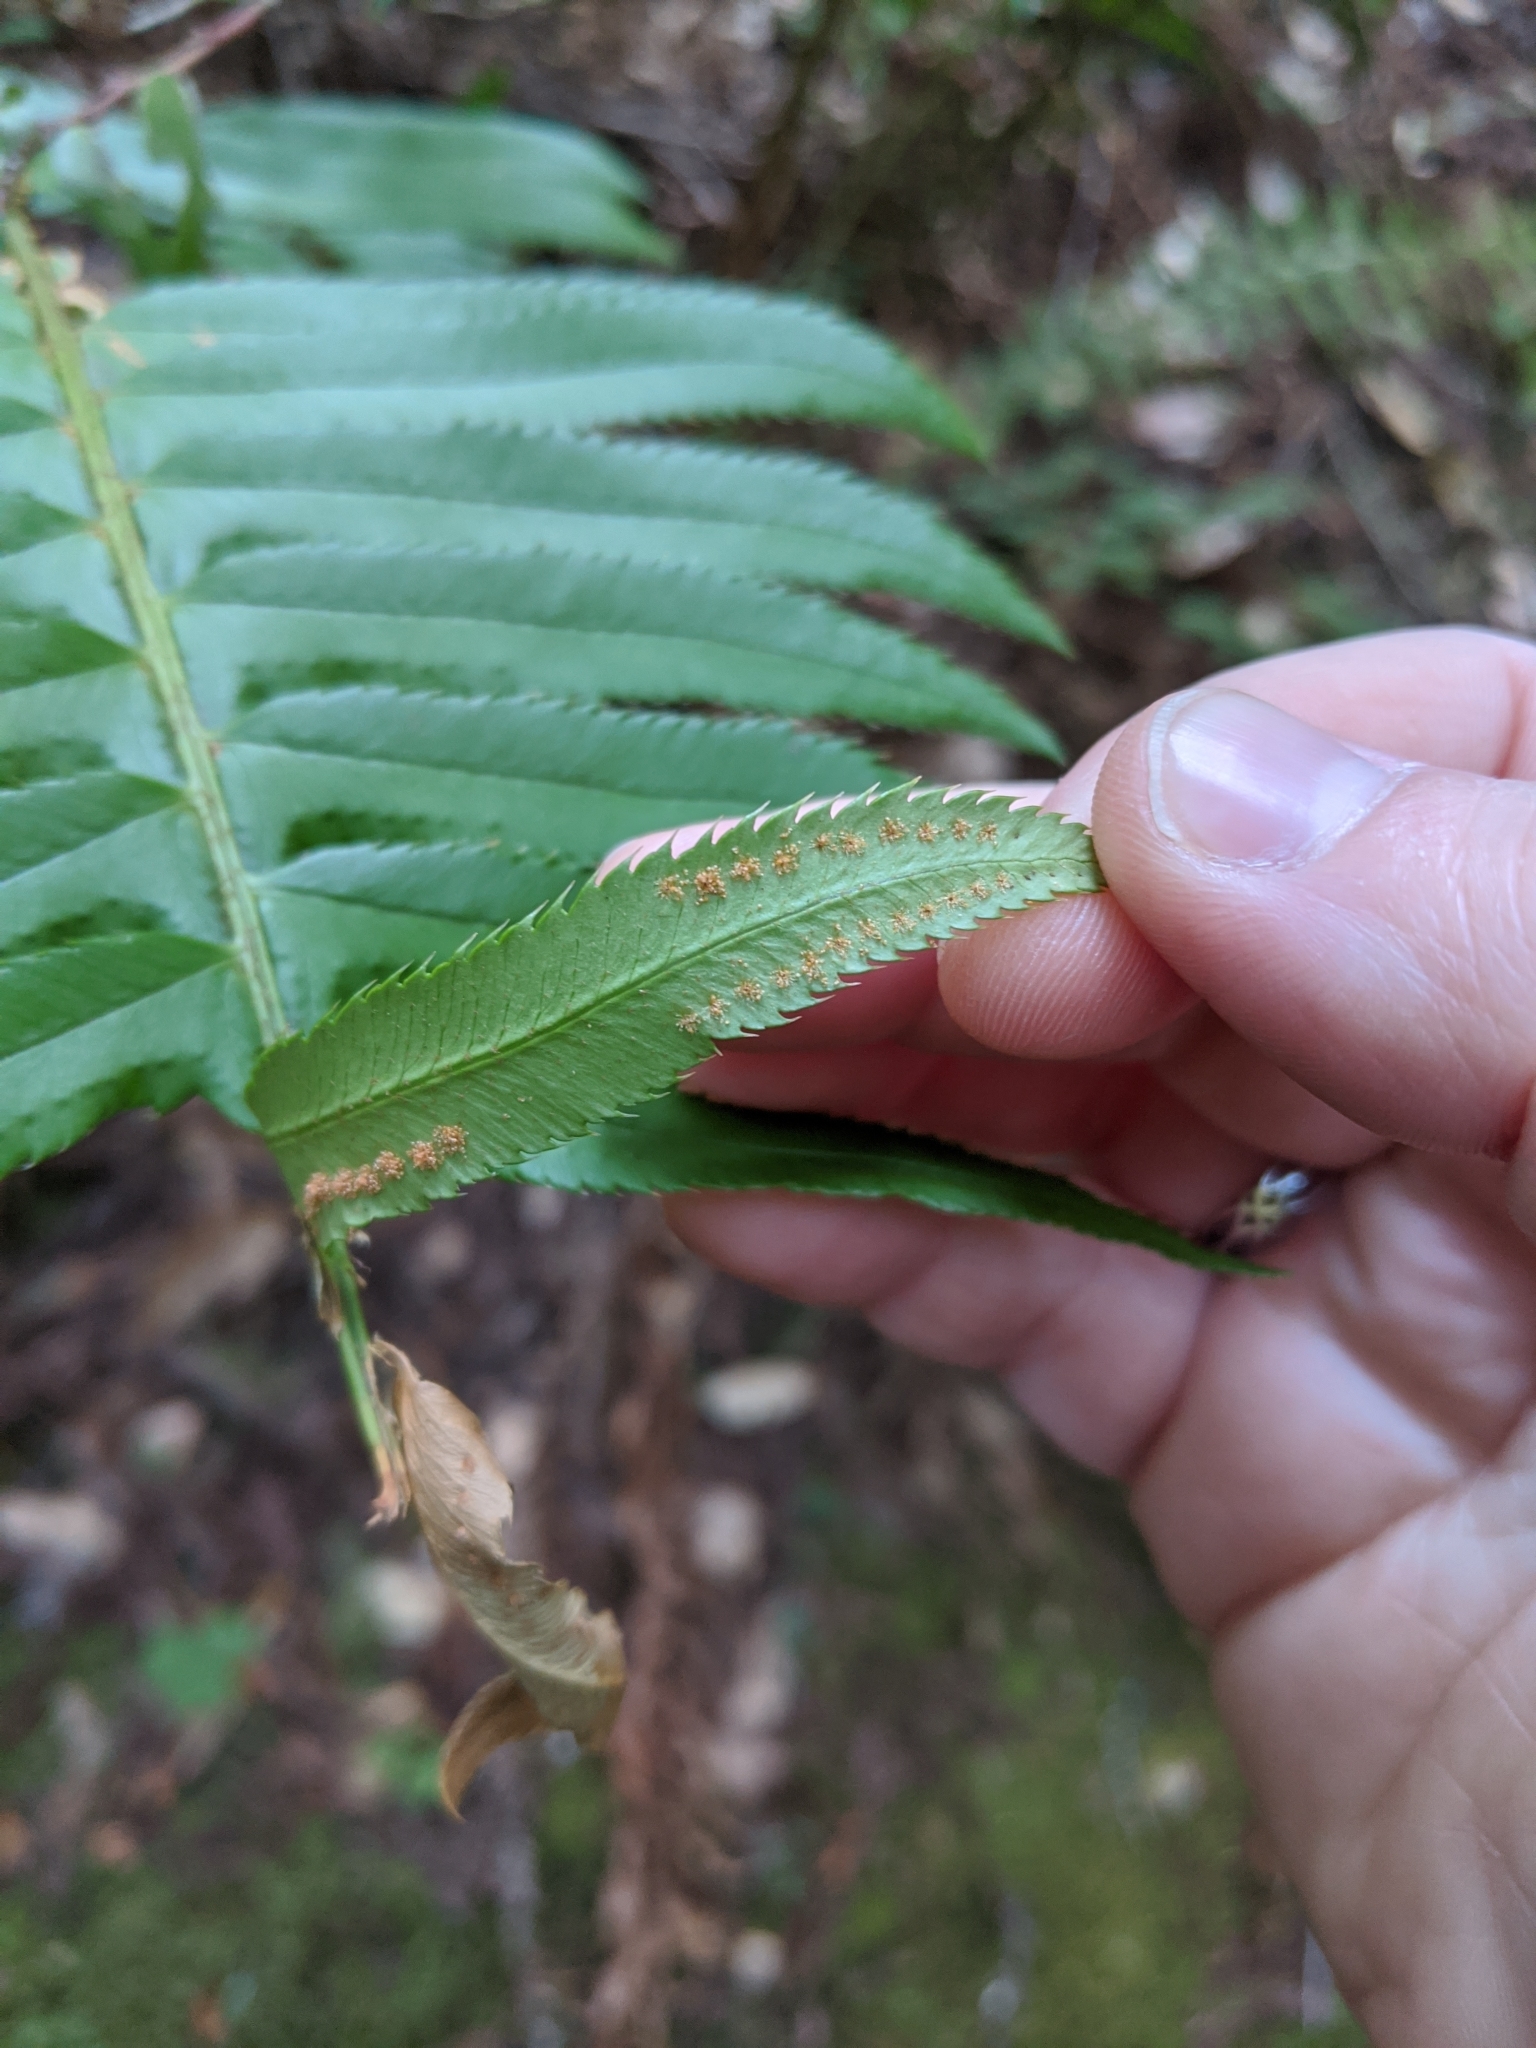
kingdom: Plantae
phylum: Tracheophyta
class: Polypodiopsida
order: Polypodiales
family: Dryopteridaceae
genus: Polystichum
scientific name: Polystichum munitum
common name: Western sword-fern
